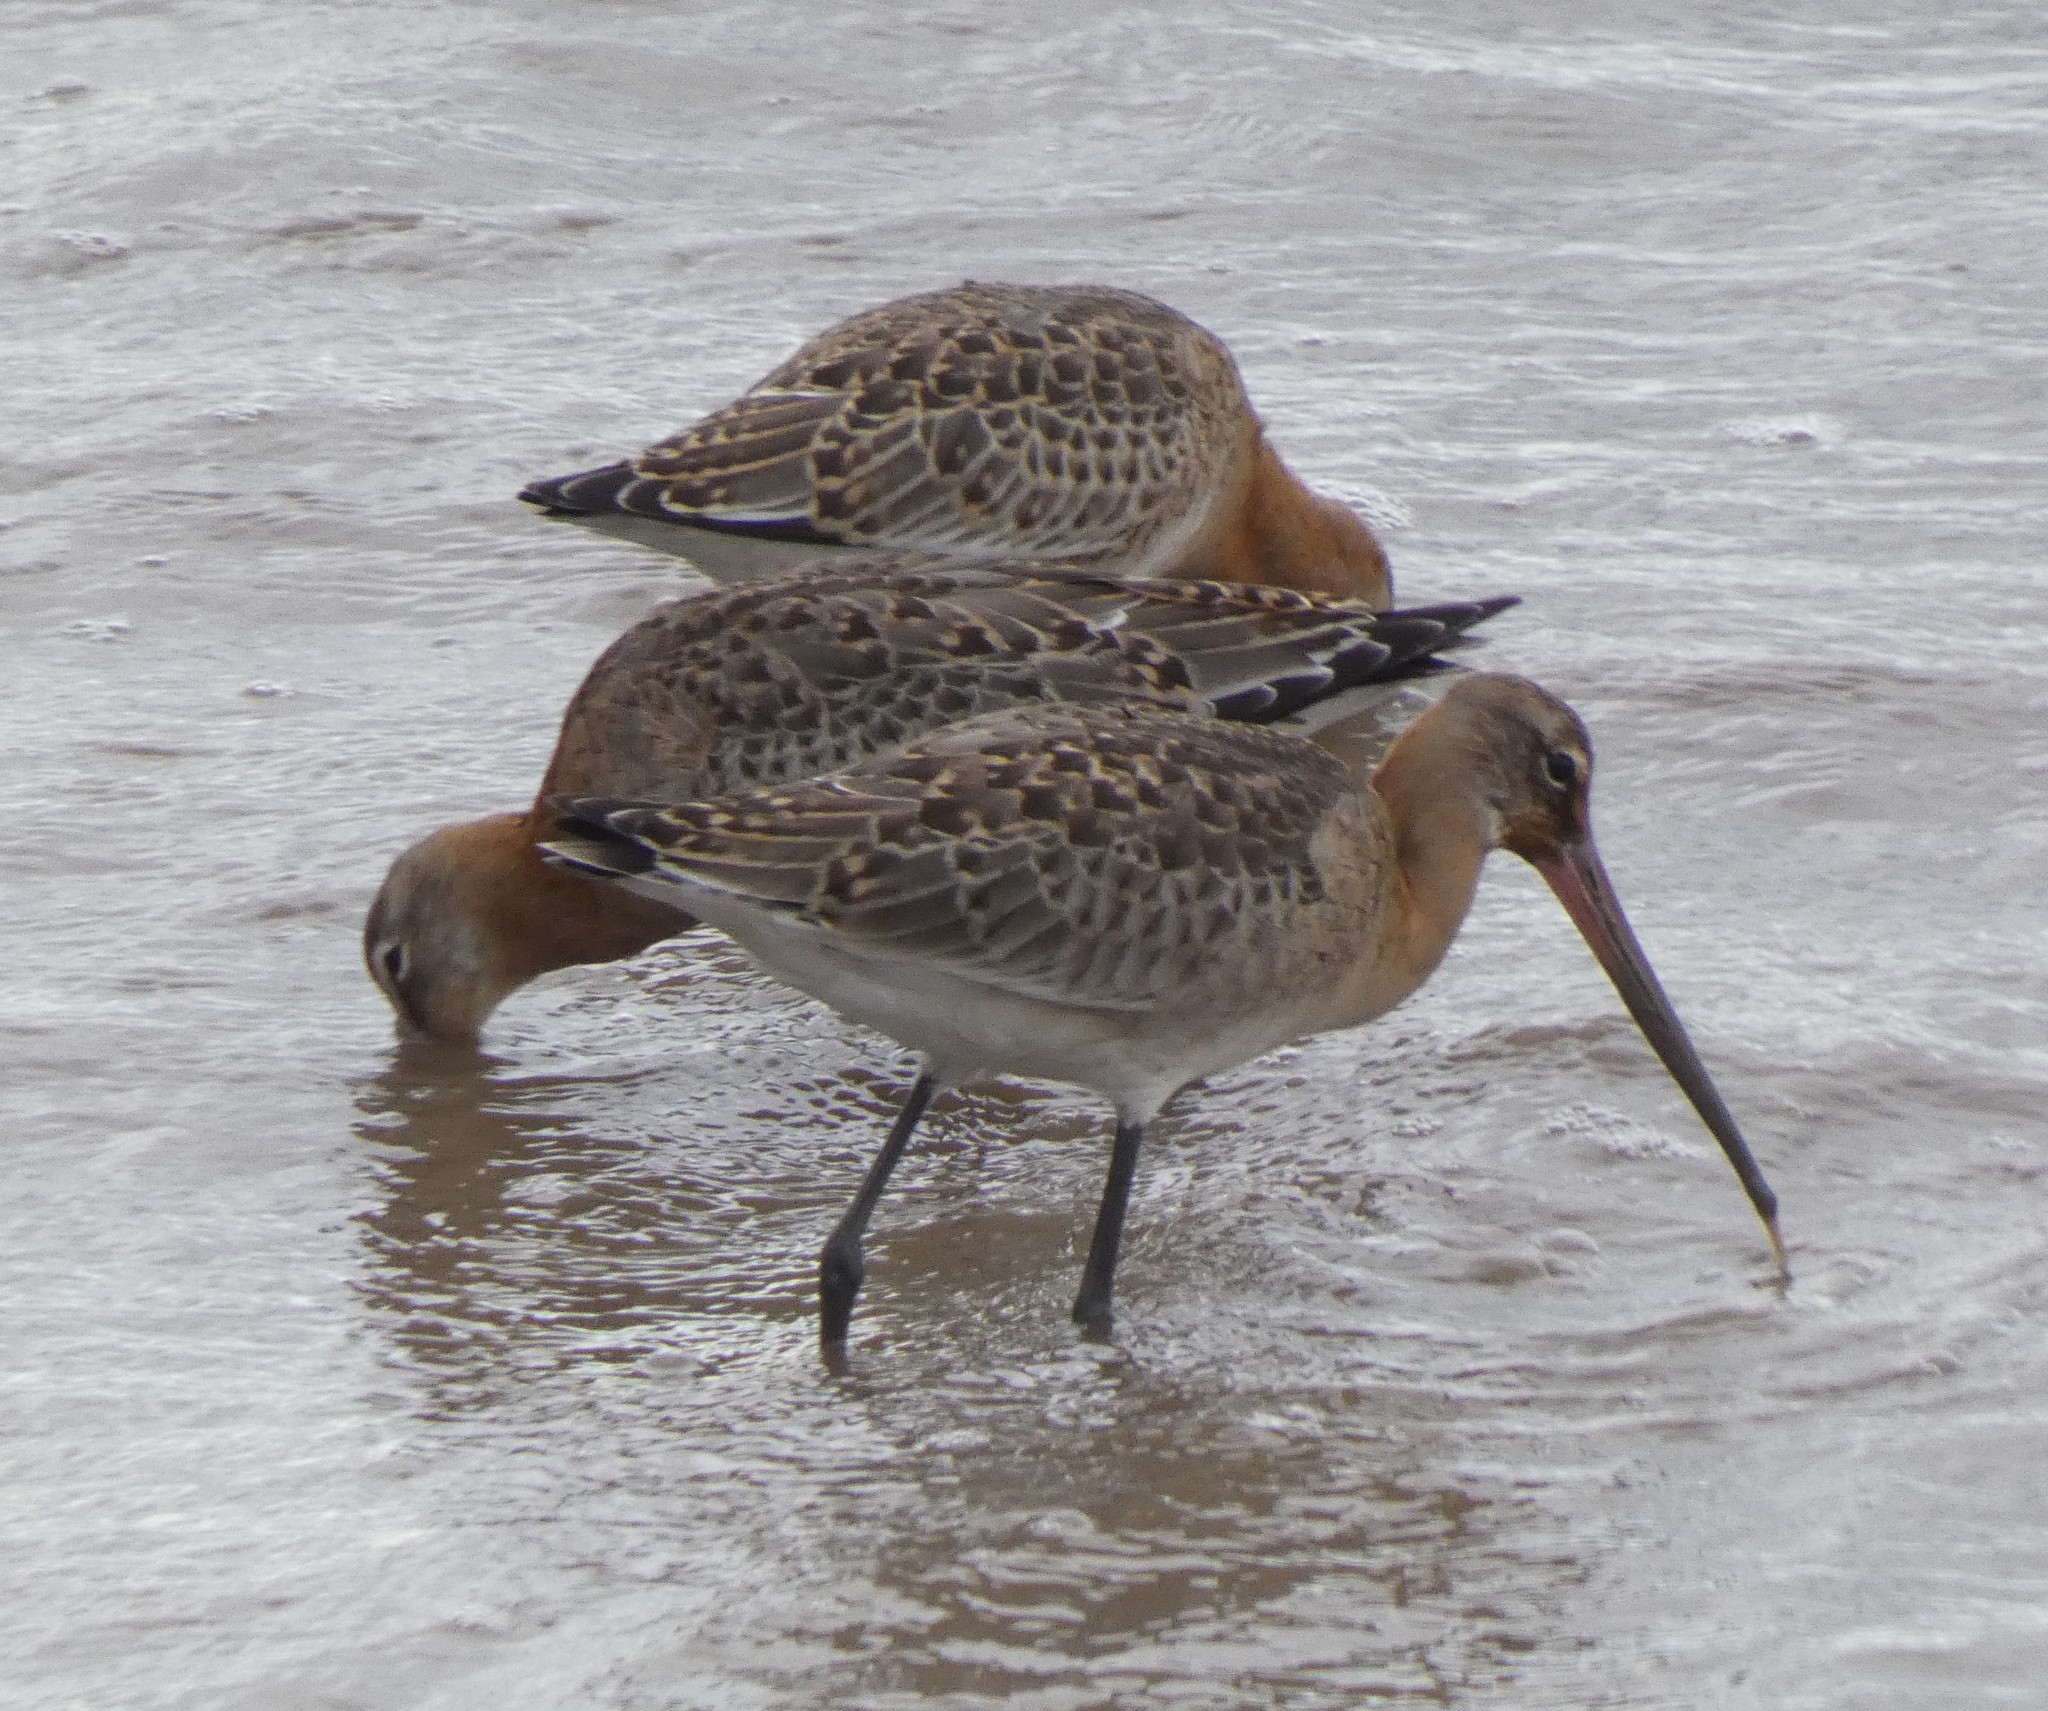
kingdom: Animalia
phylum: Chordata
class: Aves
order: Charadriiformes
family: Scolopacidae
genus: Limosa
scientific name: Limosa limosa
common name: Black-tailed godwit
